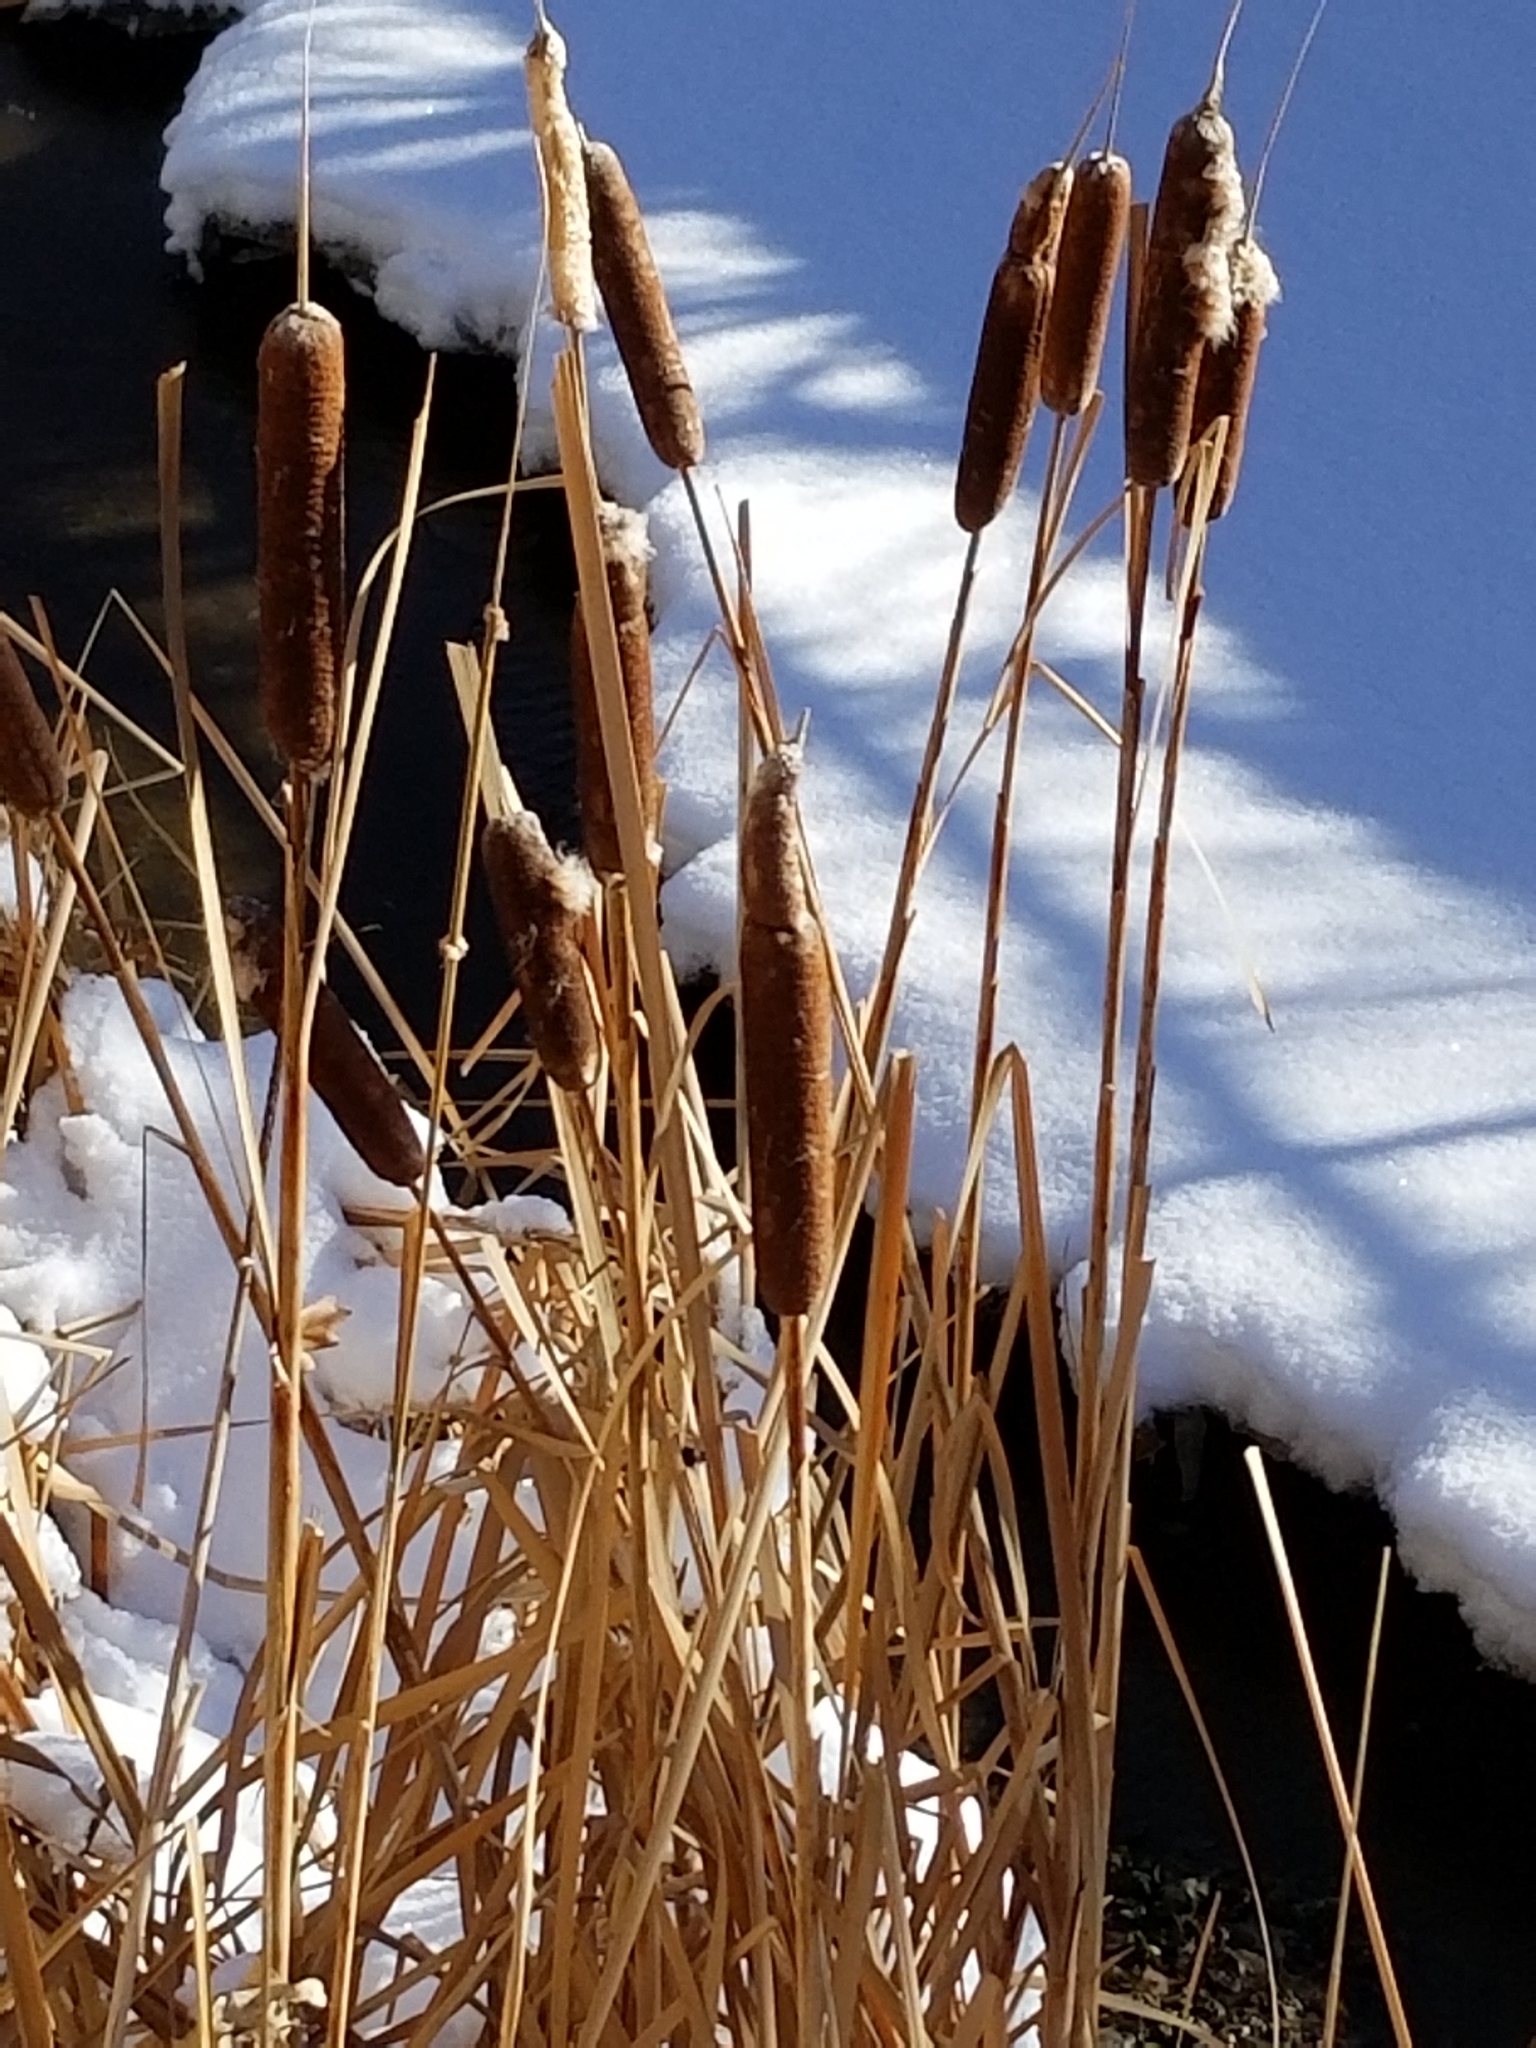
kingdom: Plantae
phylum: Tracheophyta
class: Liliopsida
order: Poales
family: Typhaceae
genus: Typha
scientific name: Typha latifolia
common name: Broadleaf cattail
